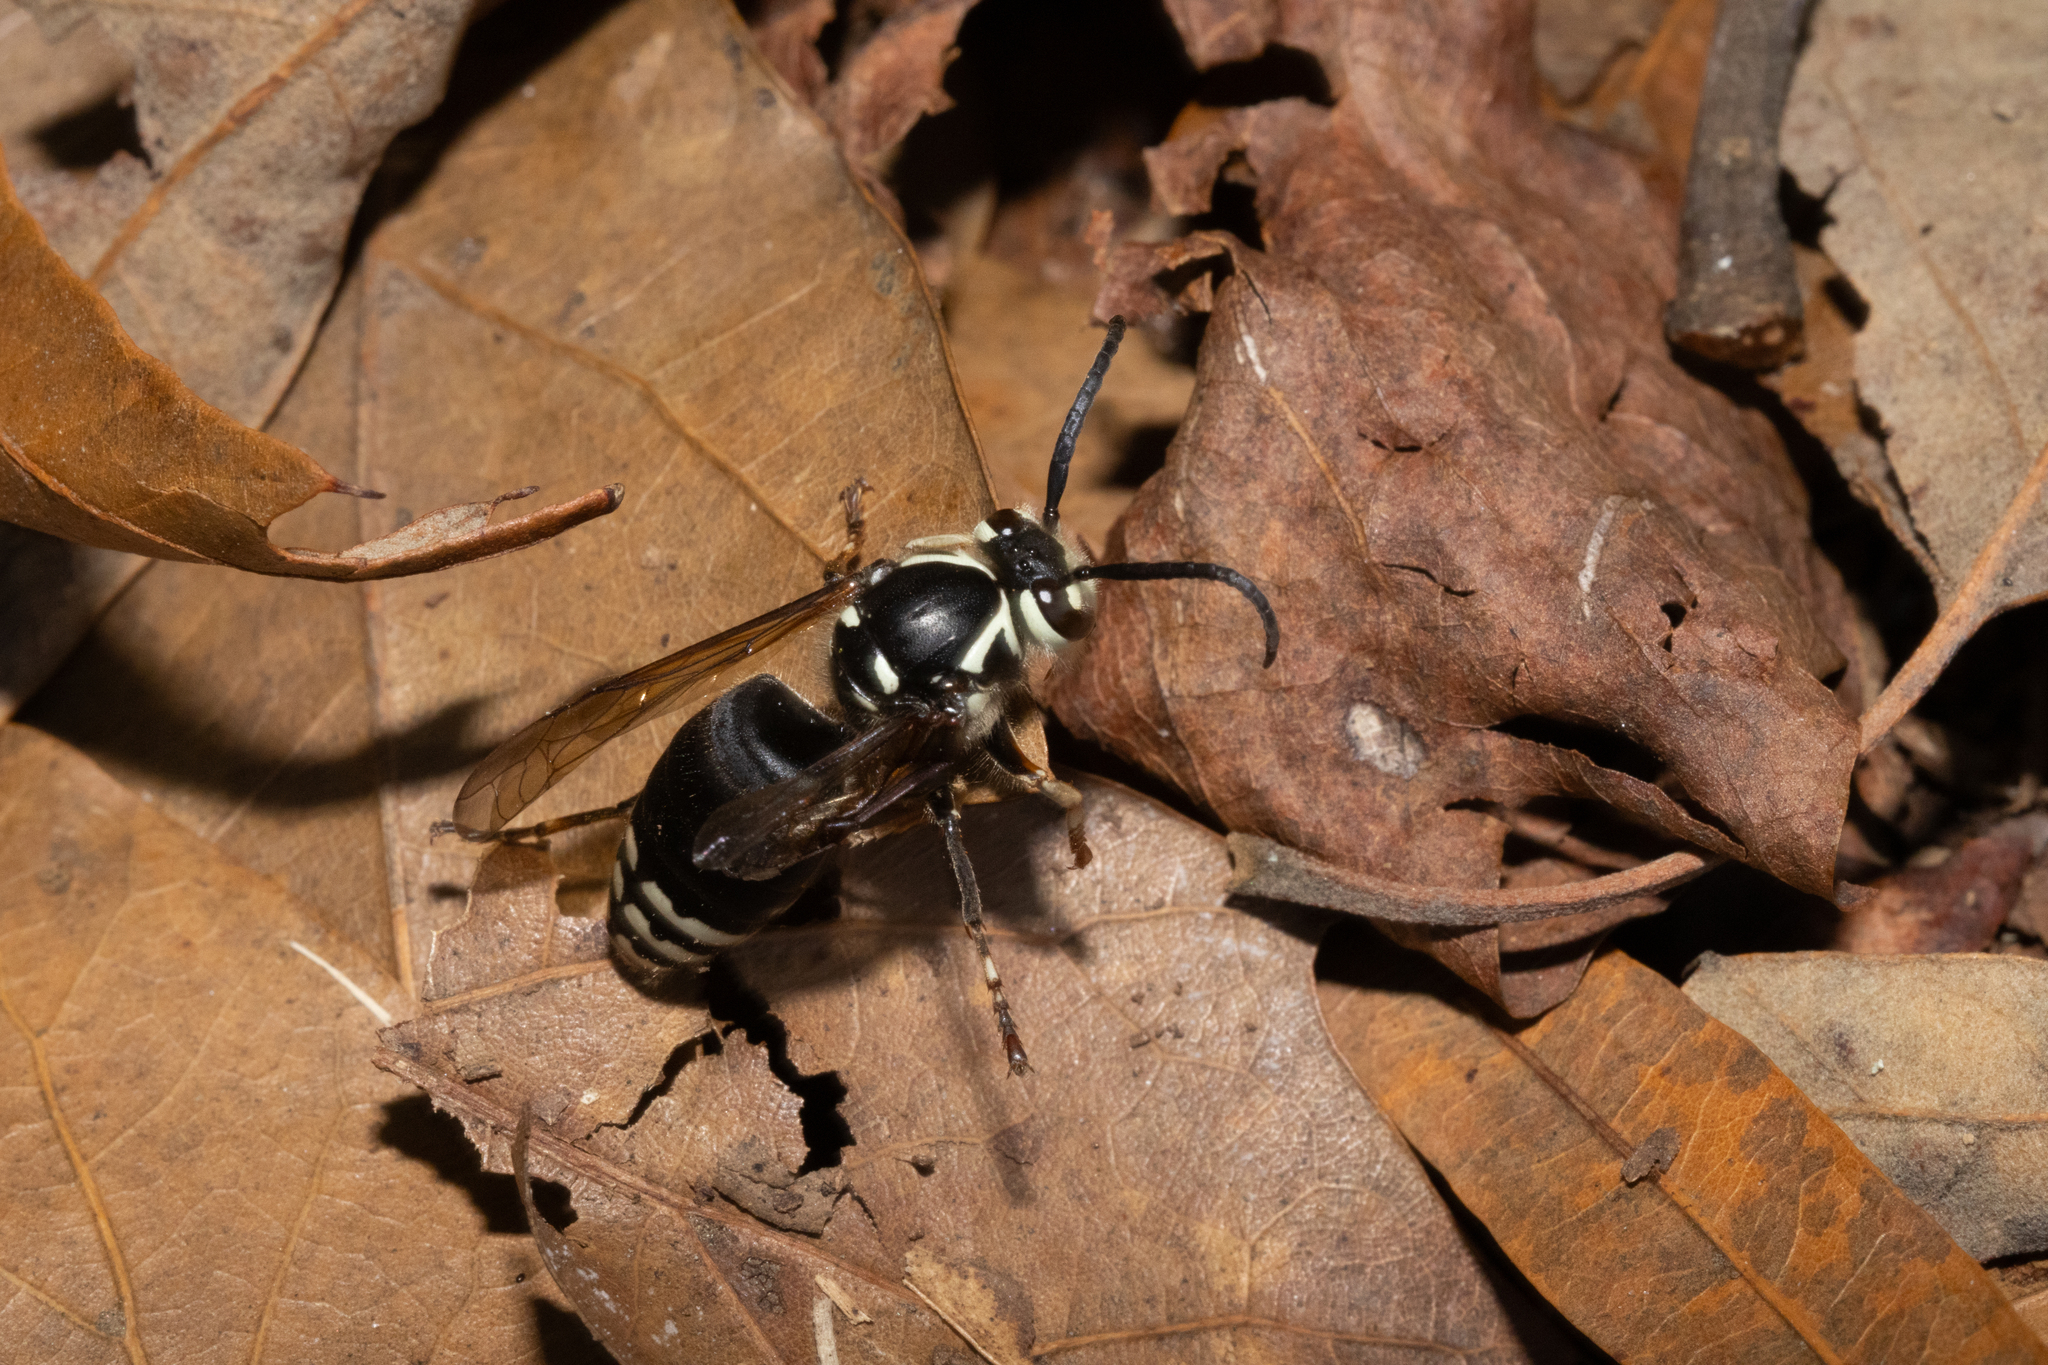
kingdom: Animalia
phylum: Arthropoda
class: Insecta
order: Hymenoptera
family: Vespidae
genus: Dolichovespula
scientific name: Dolichovespula maculata
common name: Bald-faced hornet
